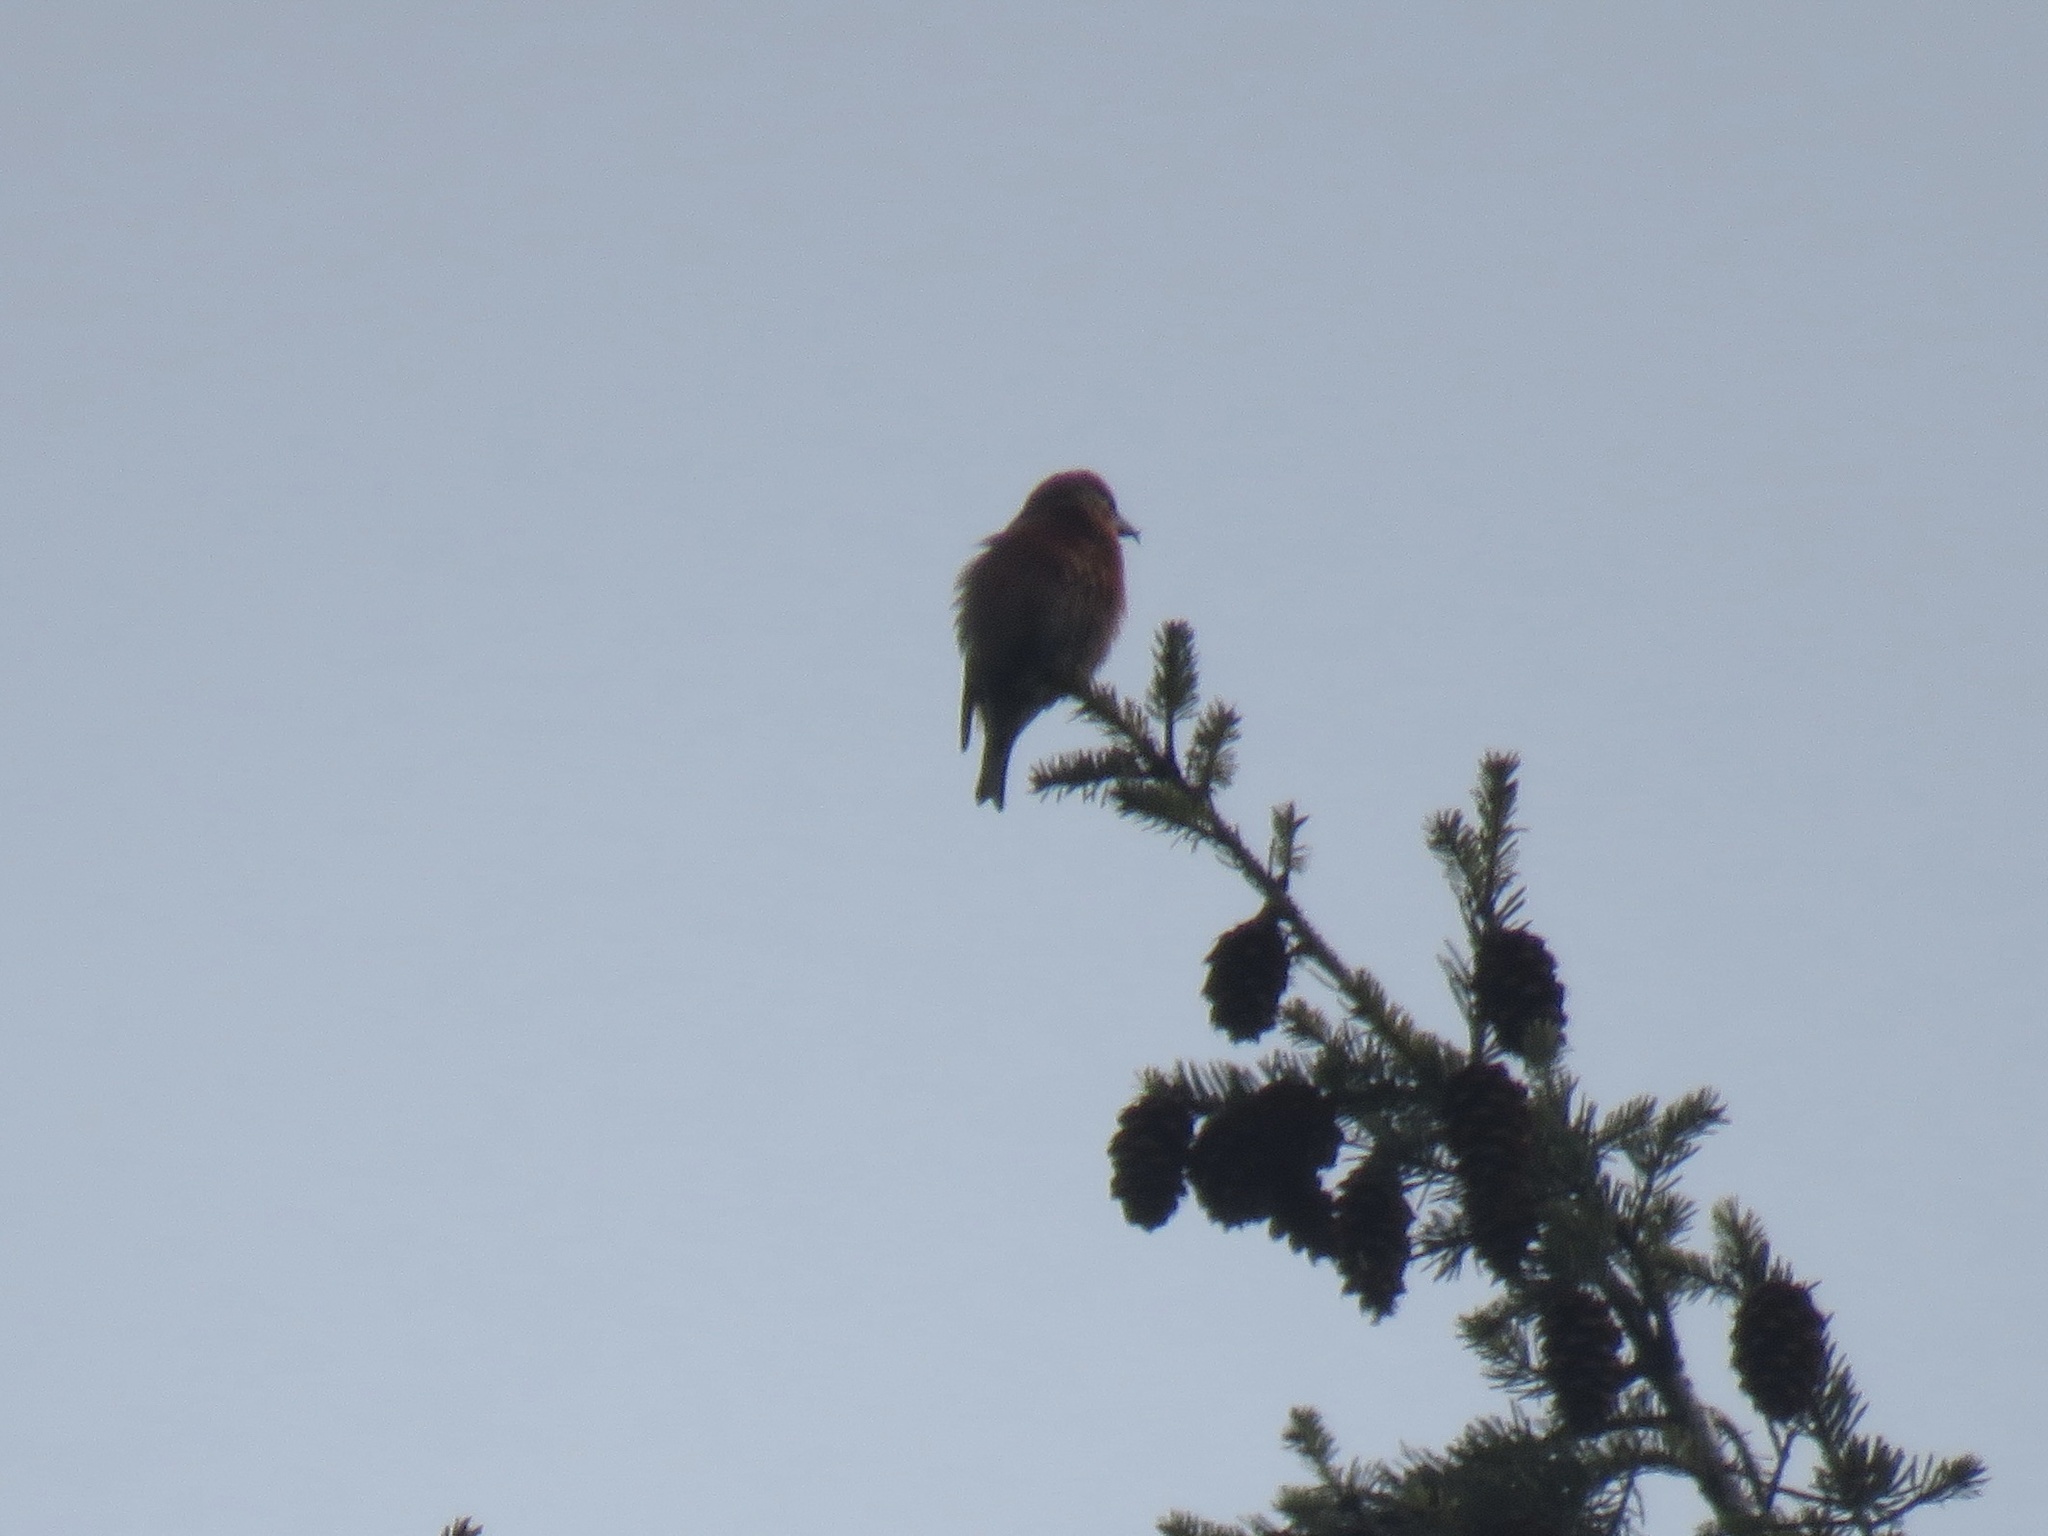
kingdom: Animalia
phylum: Chordata
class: Aves
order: Passeriformes
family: Fringillidae
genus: Loxia
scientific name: Loxia curvirostra
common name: Red crossbill
